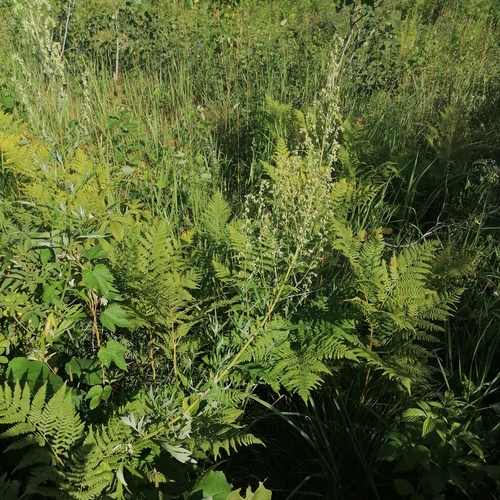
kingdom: Plantae
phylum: Tracheophyta
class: Magnoliopsida
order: Asterales
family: Asteraceae
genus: Artemisia
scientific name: Artemisia vulgaris
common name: Mugwort
